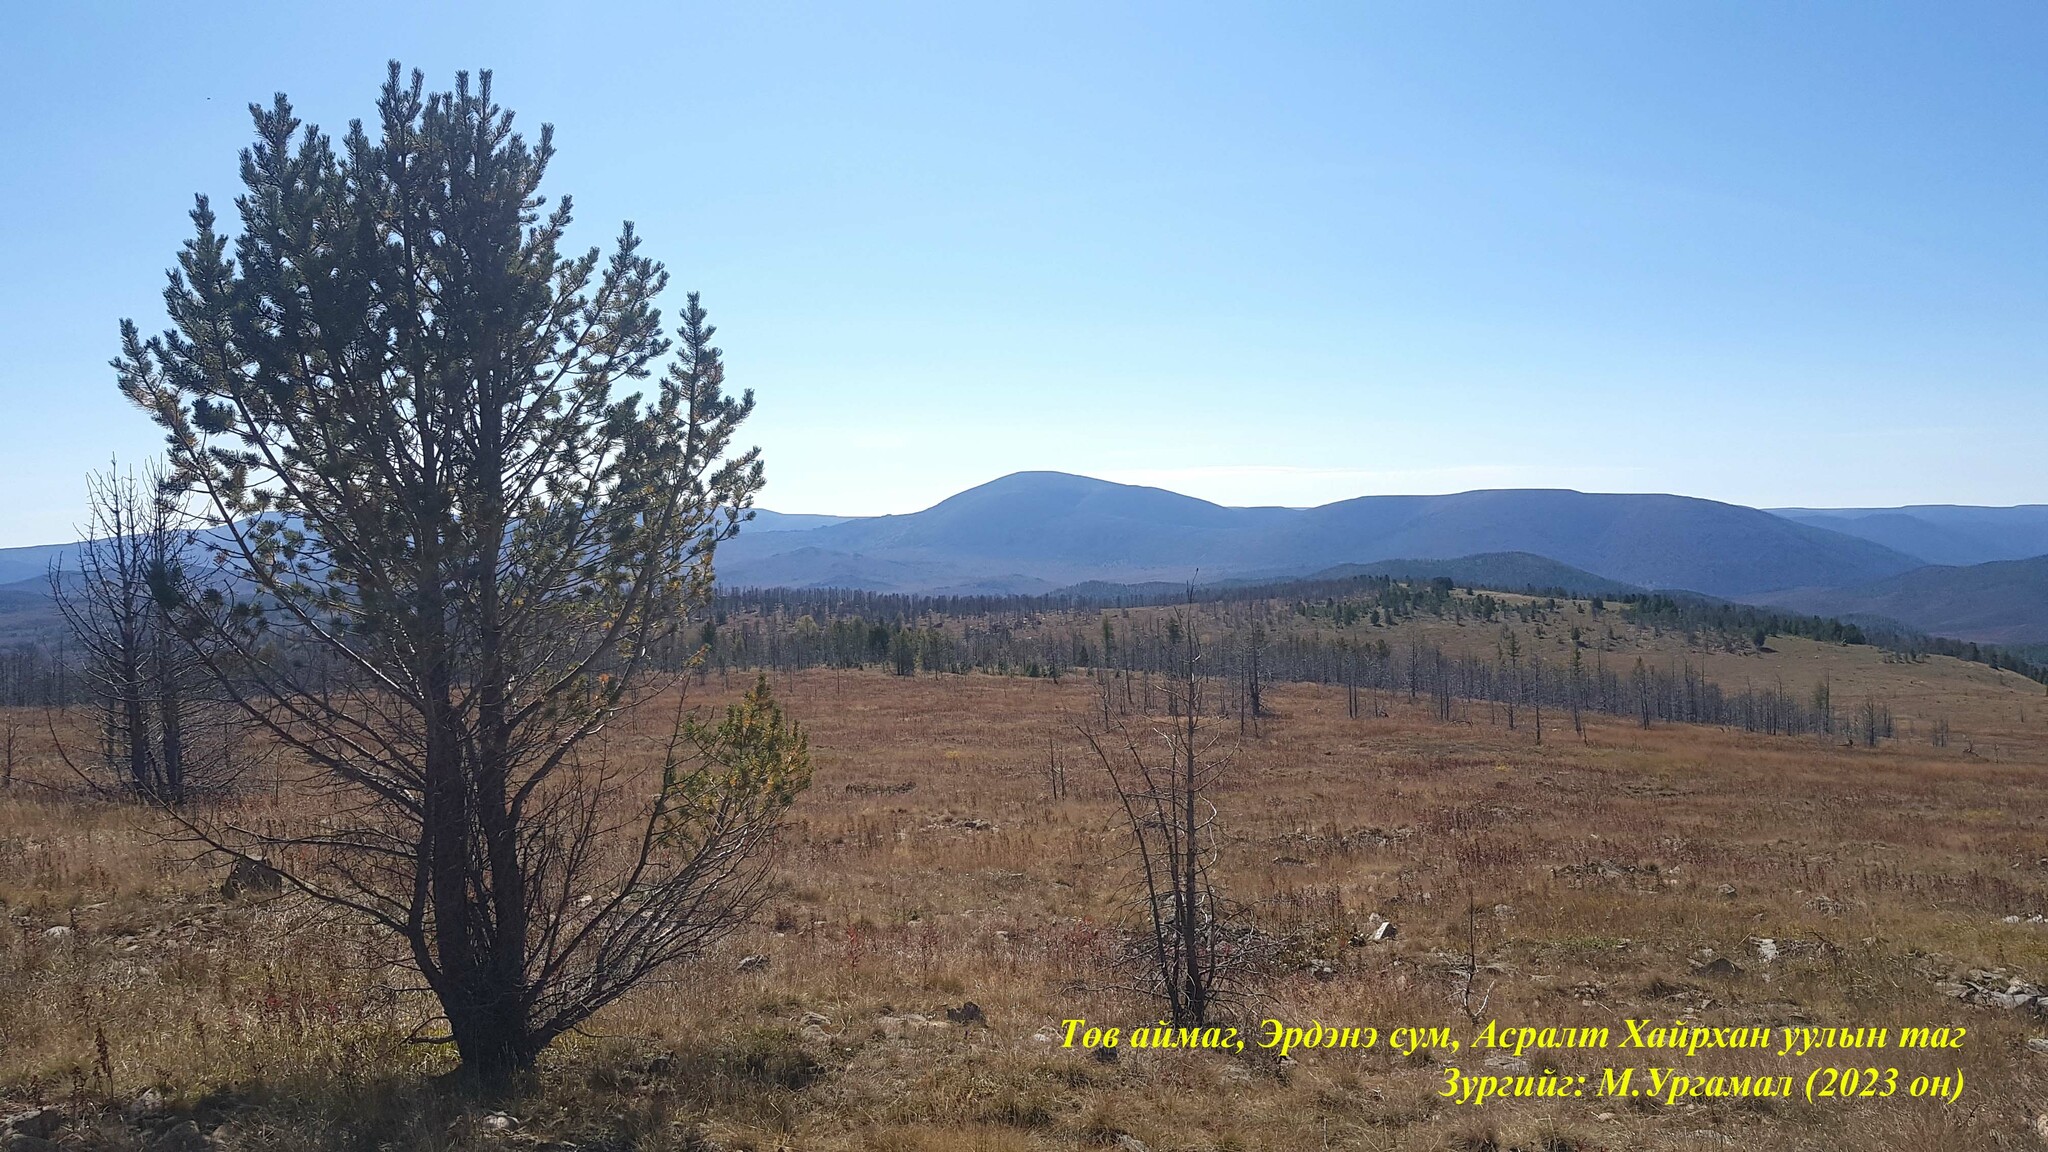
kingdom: Plantae
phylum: Tracheophyta
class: Pinopsida
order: Pinales
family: Pinaceae
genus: Pinus
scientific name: Pinus sibirica
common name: Siberian pine
